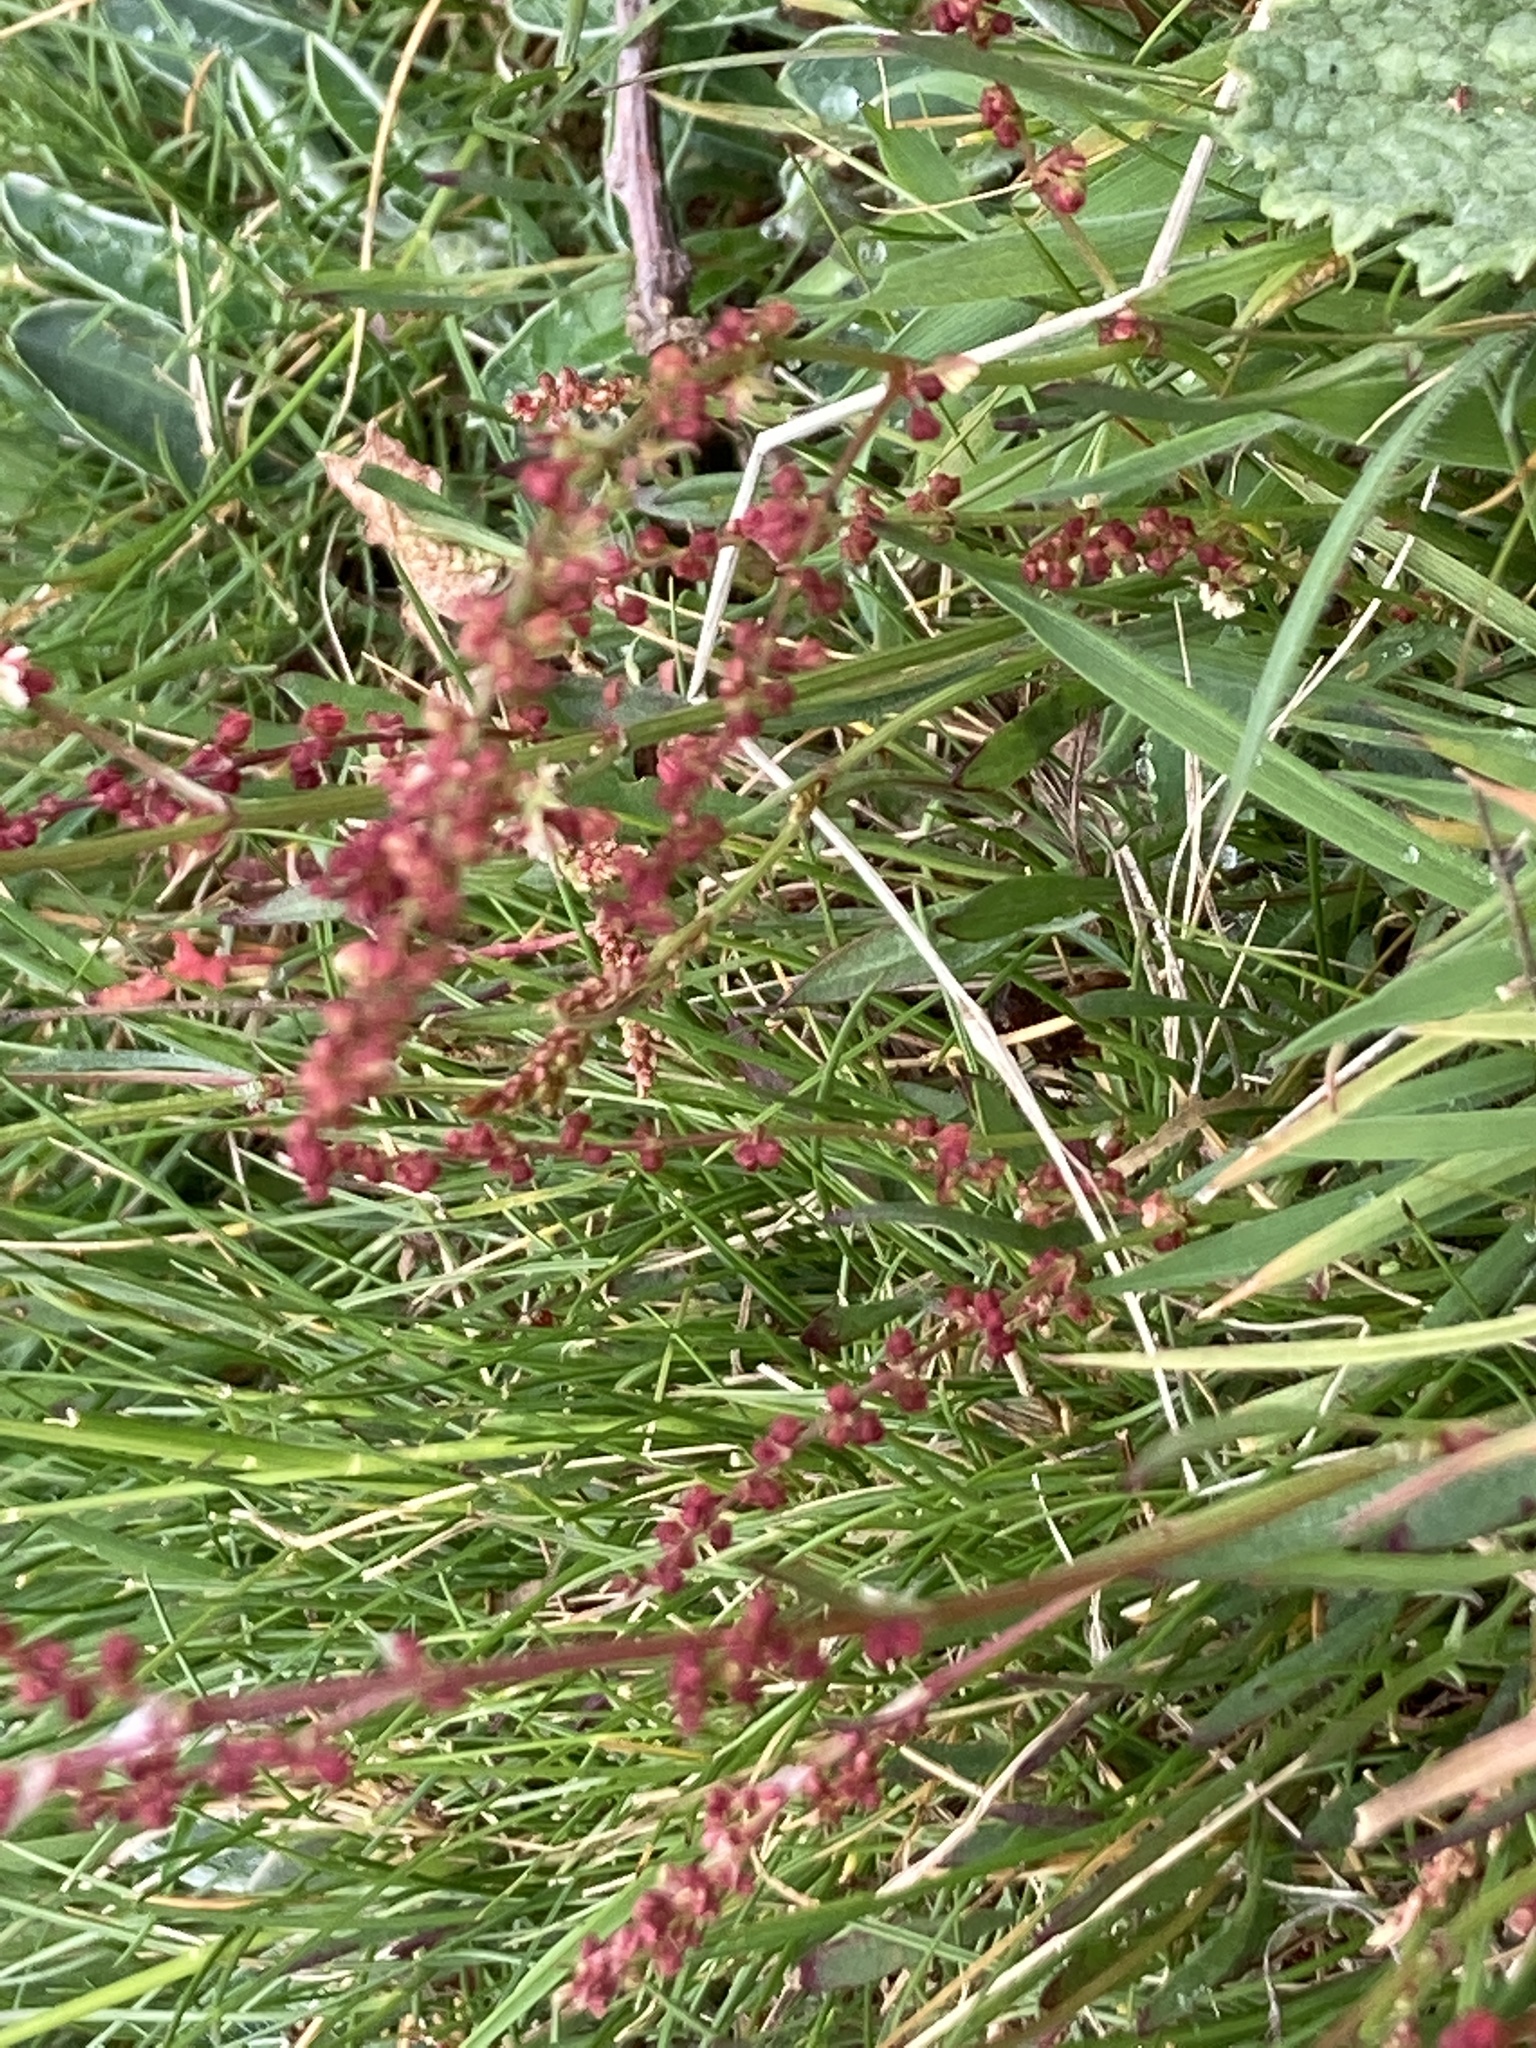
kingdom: Plantae
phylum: Tracheophyta
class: Magnoliopsida
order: Caryophyllales
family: Polygonaceae
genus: Rumex
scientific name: Rumex acetosella
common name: Common sheep sorrel
